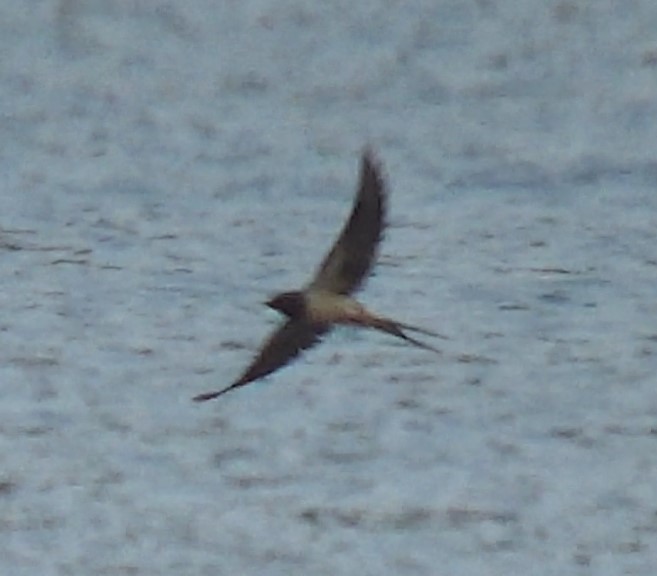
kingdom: Animalia
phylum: Chordata
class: Aves
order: Passeriformes
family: Hirundinidae
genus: Hirundo
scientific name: Hirundo rustica
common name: Barn swallow
